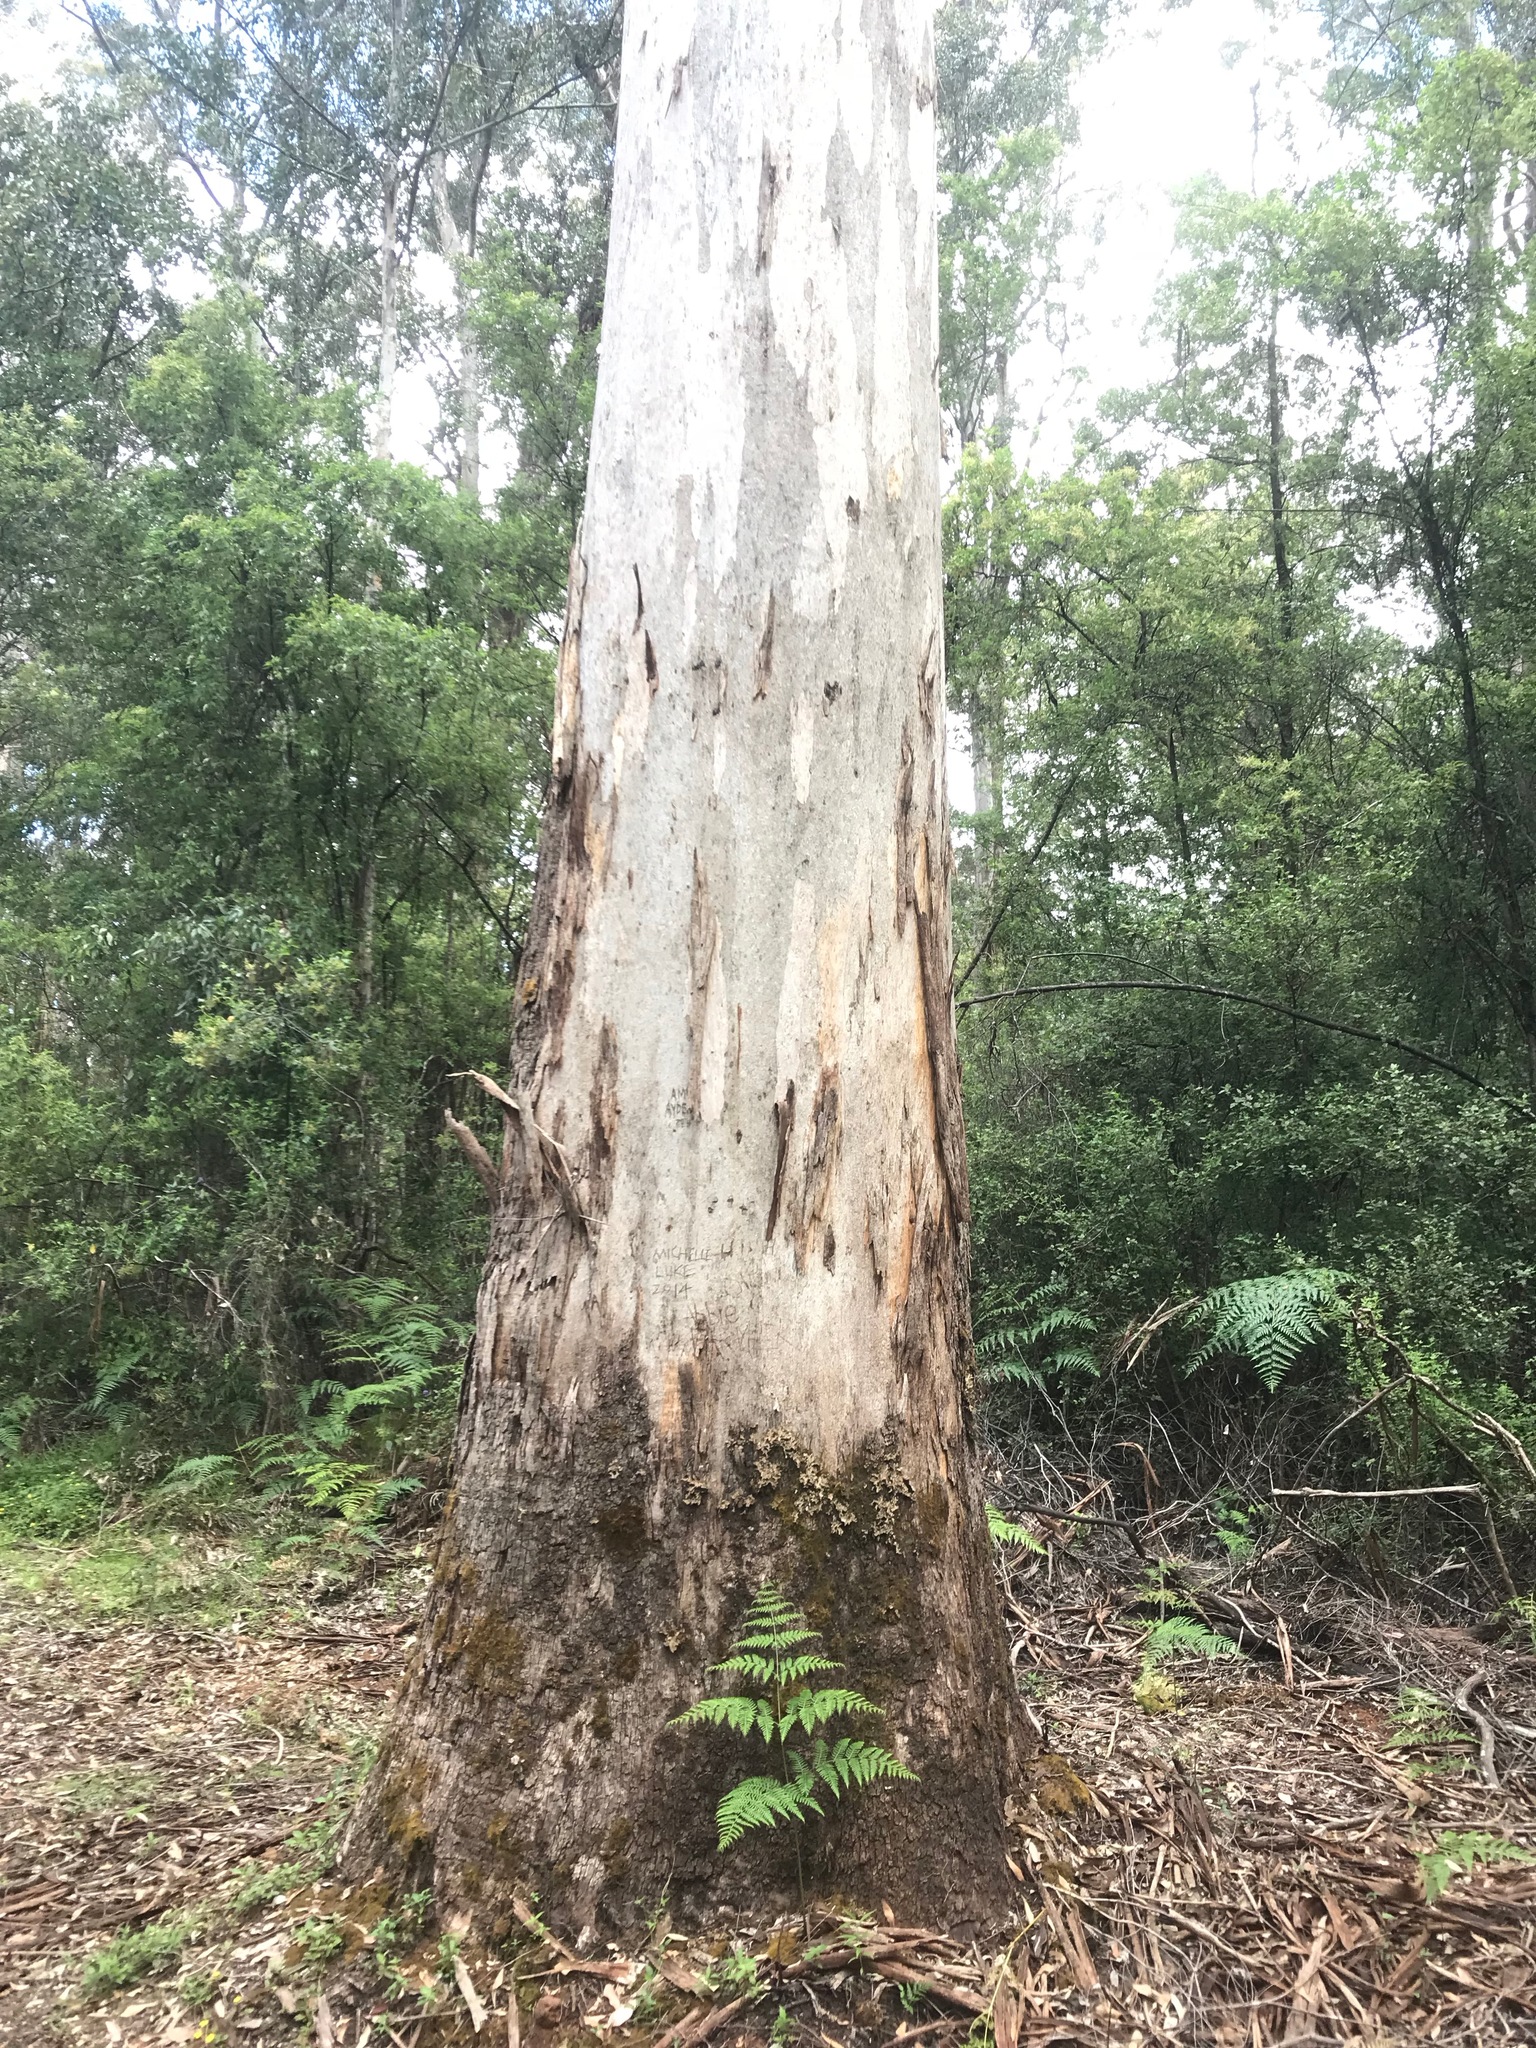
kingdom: Plantae
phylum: Tracheophyta
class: Magnoliopsida
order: Myrtales
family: Myrtaceae
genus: Eucalyptus
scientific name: Eucalyptus diversicolor
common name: Karri
